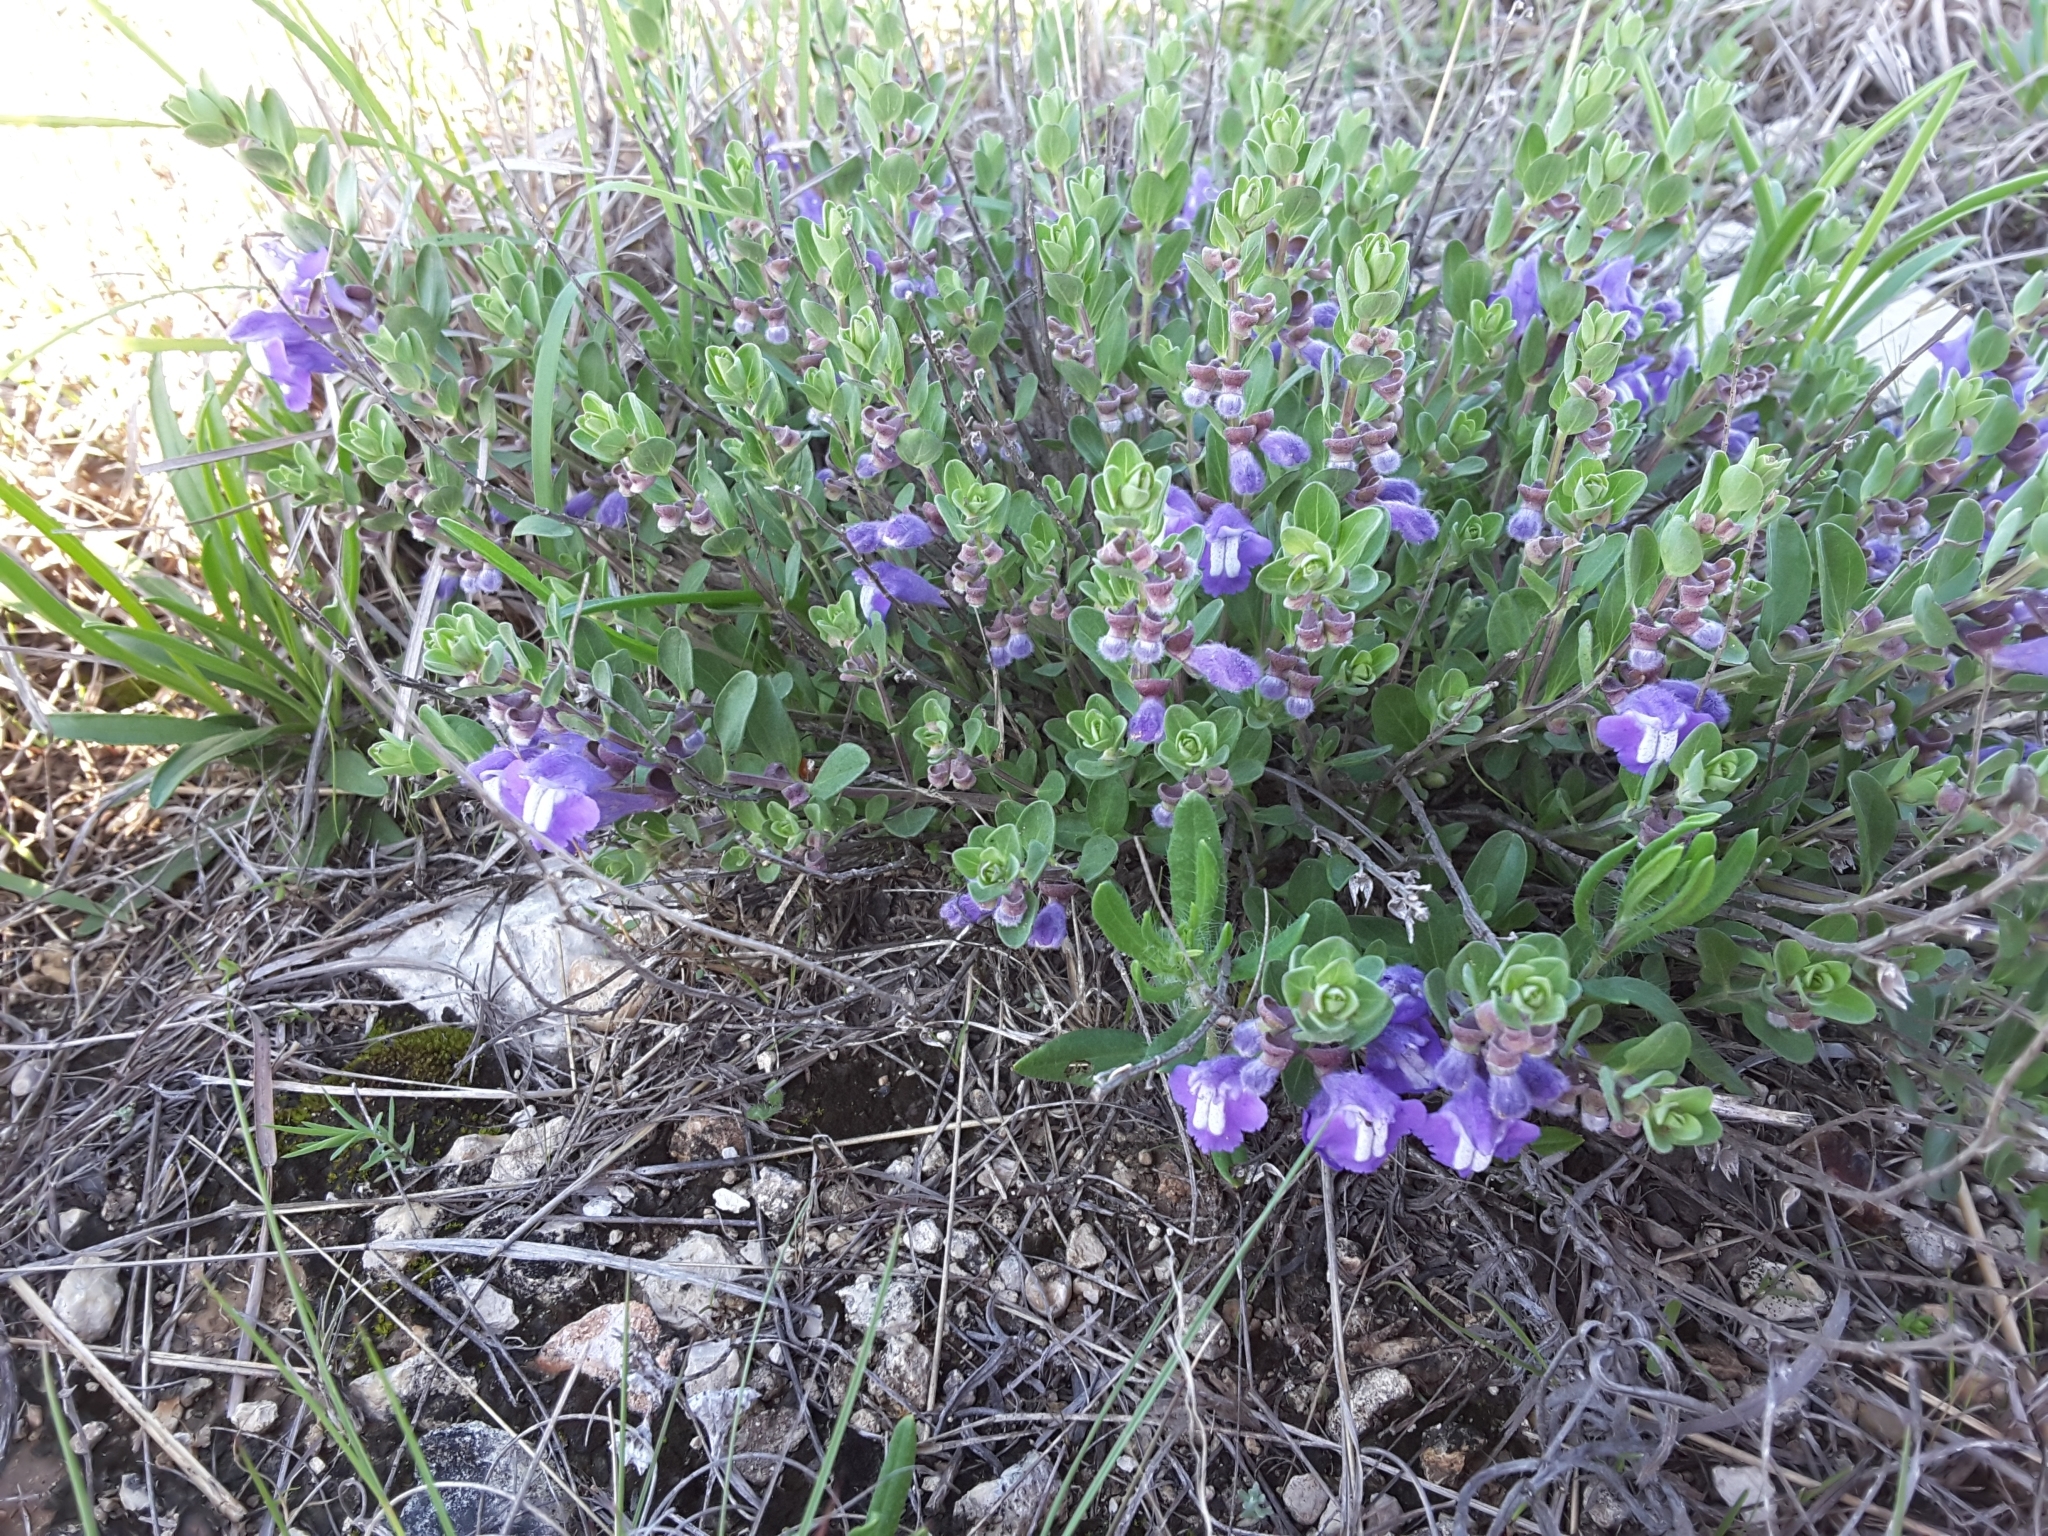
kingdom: Plantae
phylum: Tracheophyta
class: Magnoliopsida
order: Lamiales
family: Lamiaceae
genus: Scutellaria
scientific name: Scutellaria wrightii
